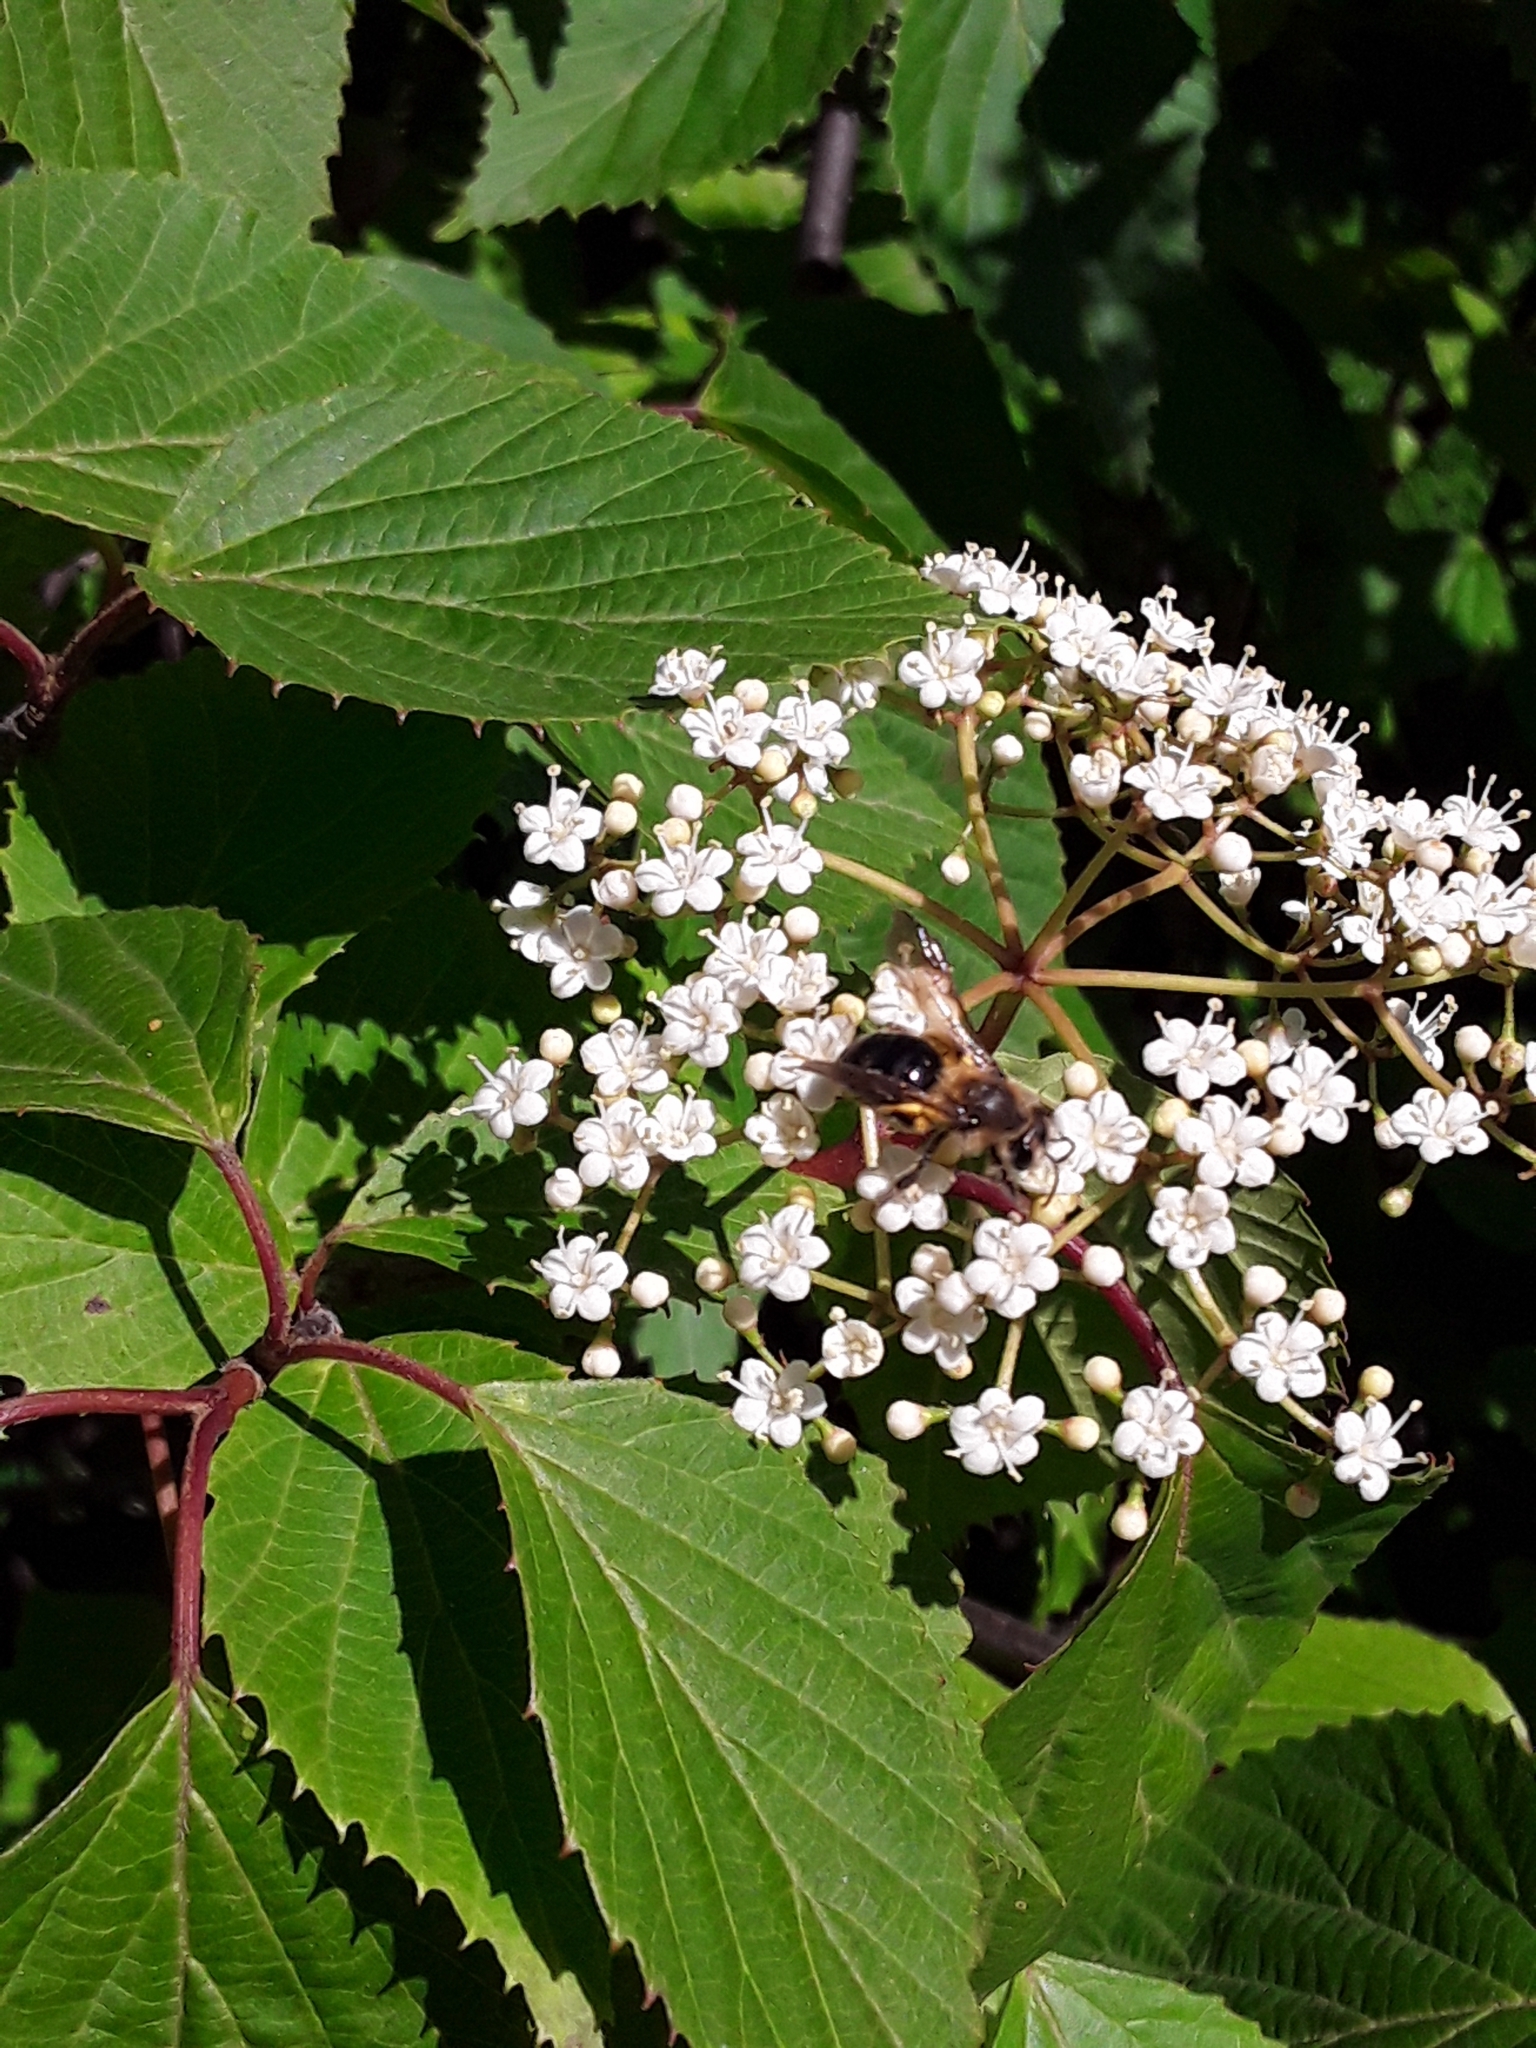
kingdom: Animalia
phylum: Arthropoda
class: Insecta
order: Hymenoptera
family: Andrenidae
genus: Andrena
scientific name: Andrena
